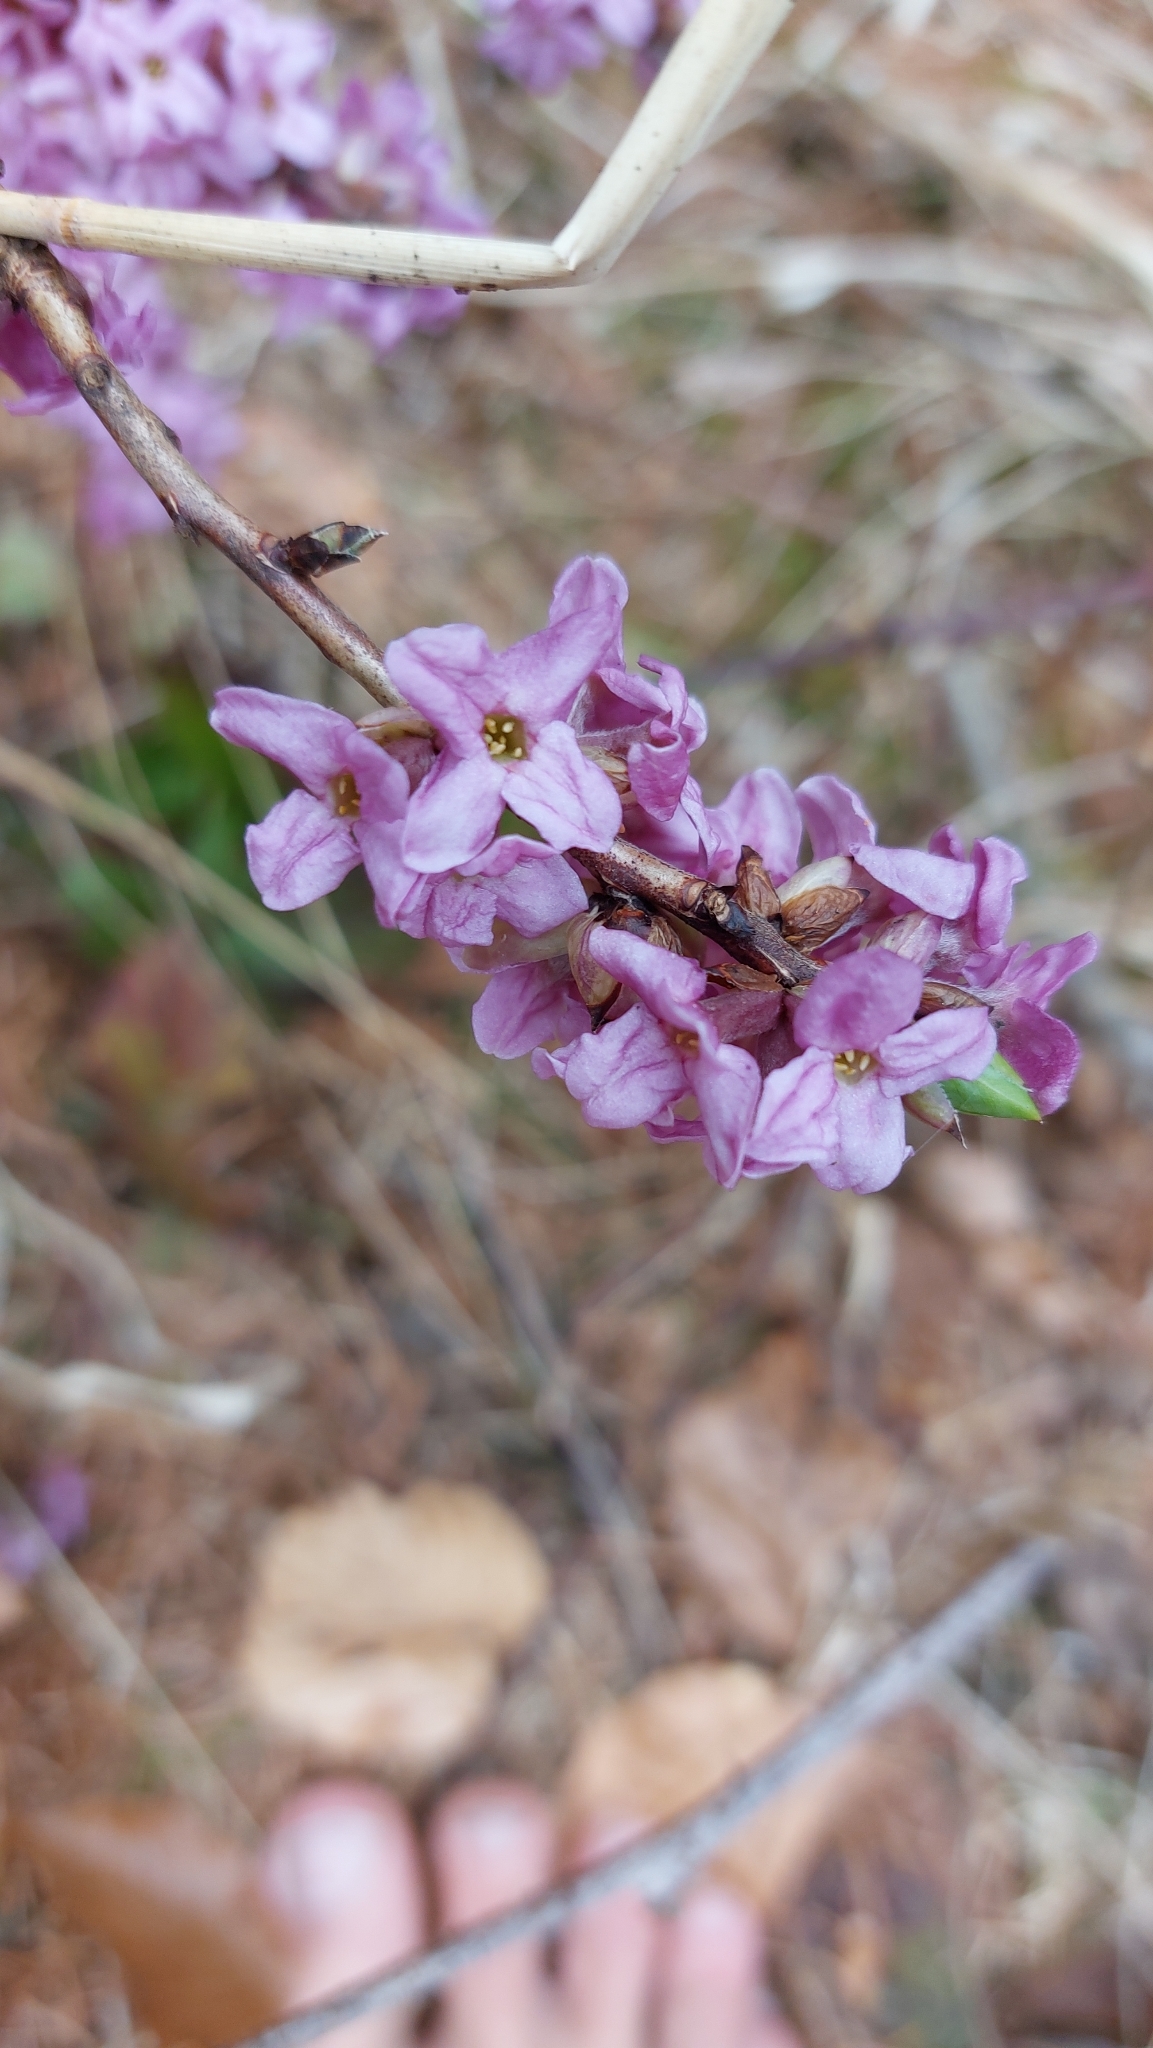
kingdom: Plantae
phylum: Tracheophyta
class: Magnoliopsida
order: Malvales
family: Thymelaeaceae
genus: Daphne
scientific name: Daphne mezereum
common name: Mezereon
